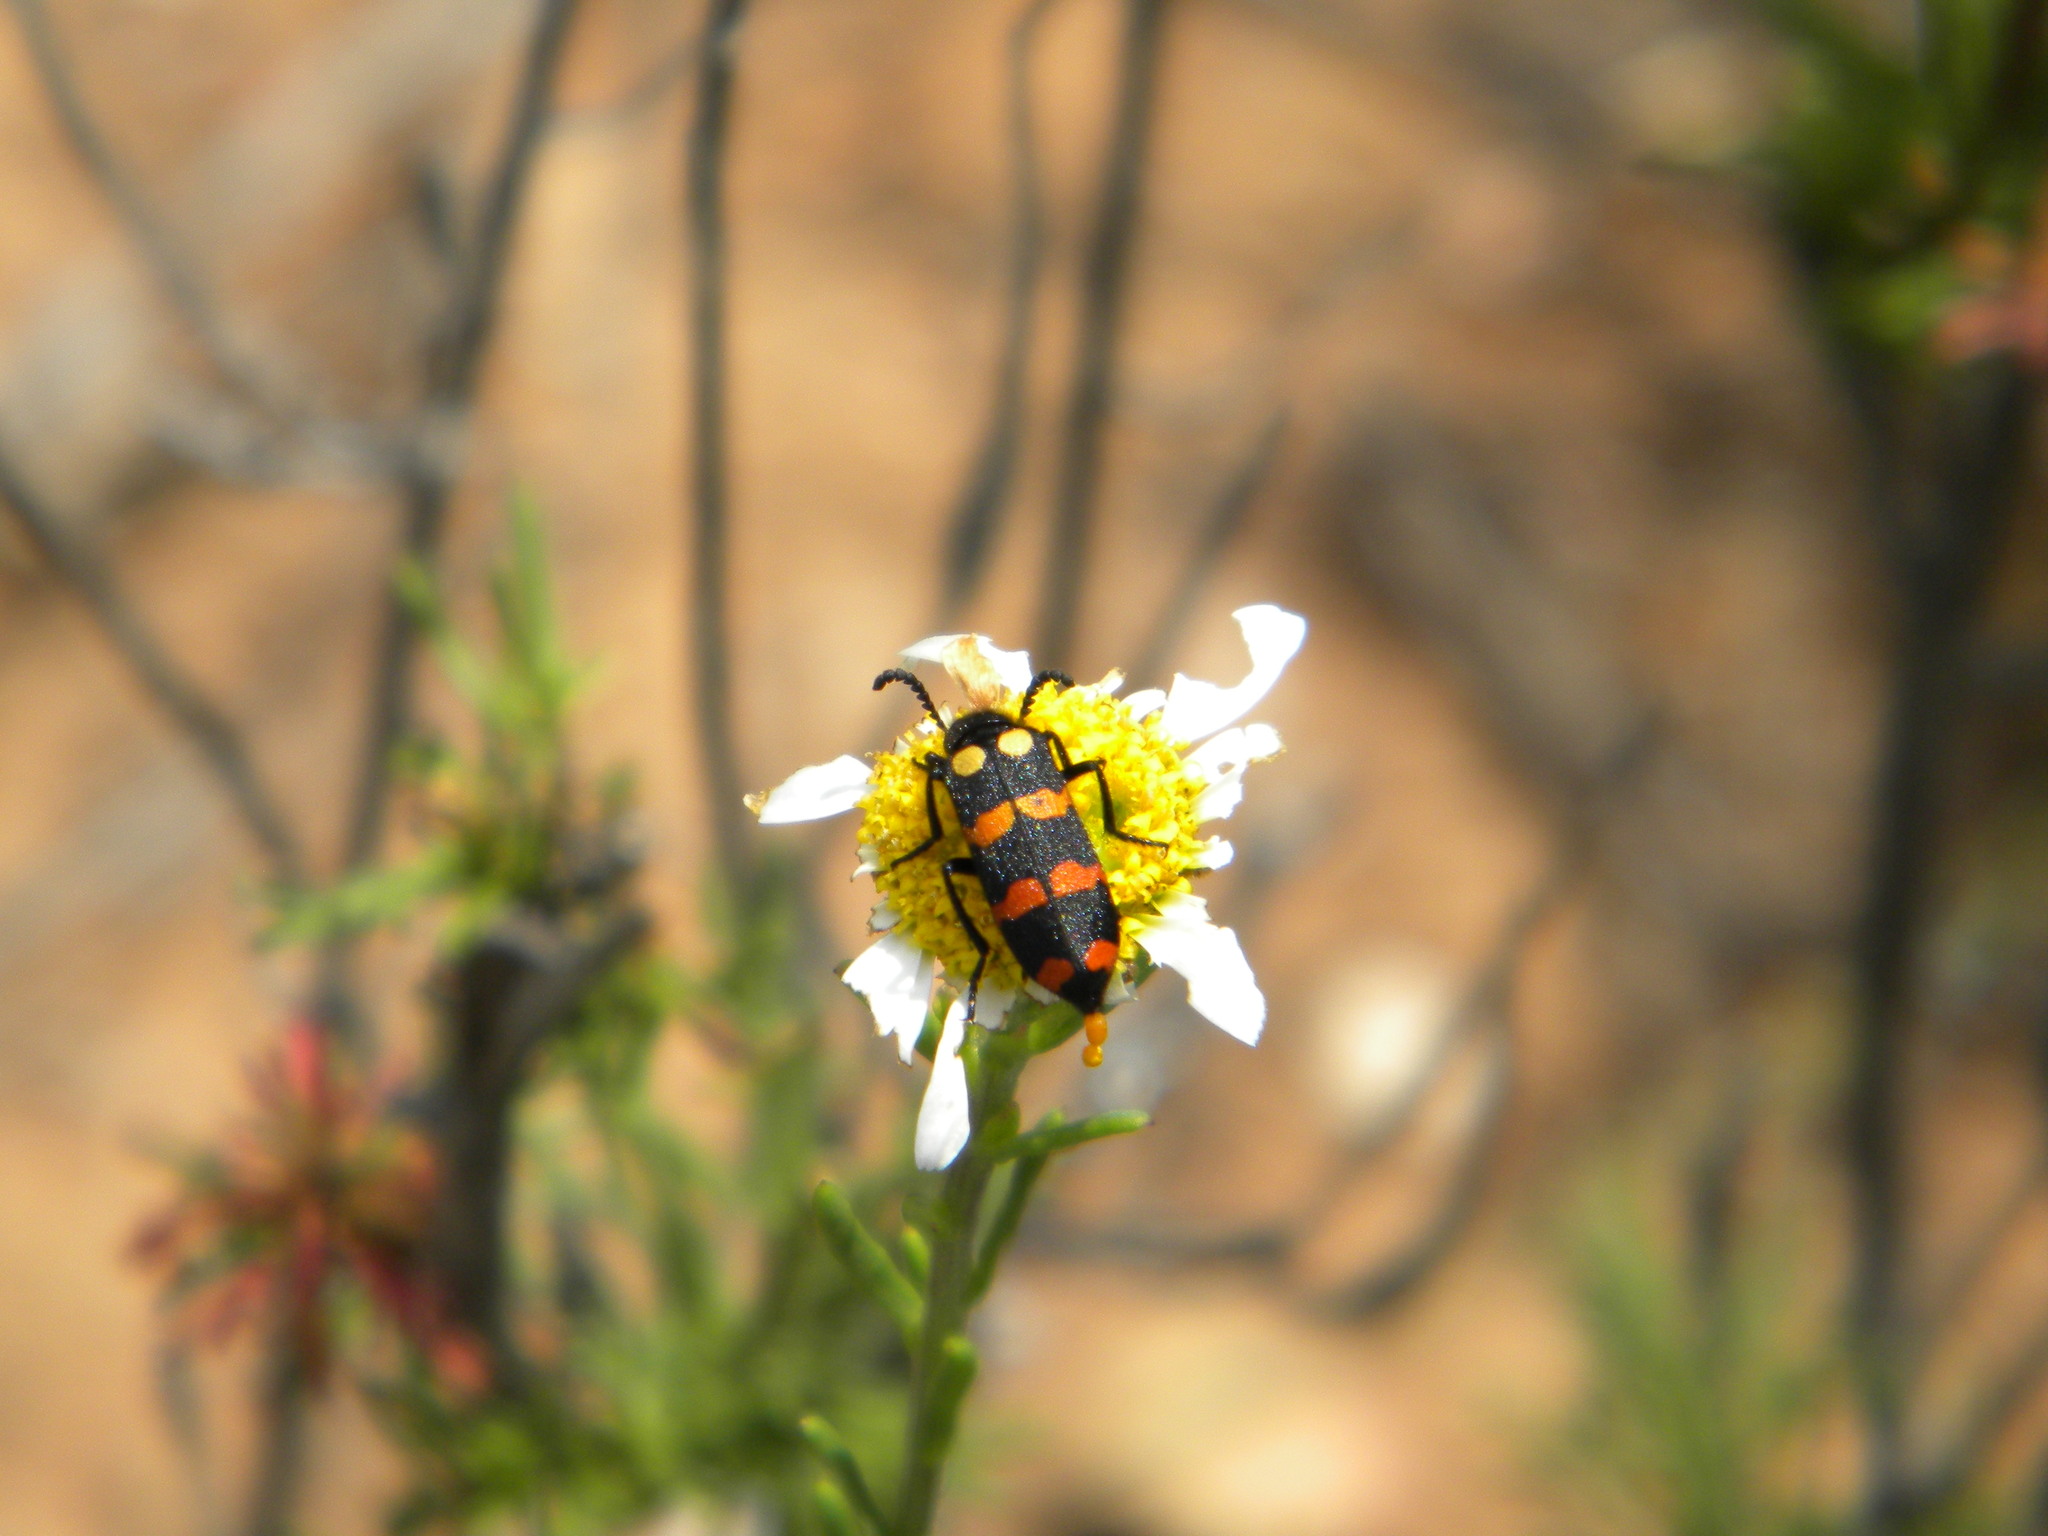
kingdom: Animalia
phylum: Arthropoda
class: Insecta
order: Coleoptera
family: Meloidae
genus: Ceroctis
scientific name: Ceroctis gyllenhalli
